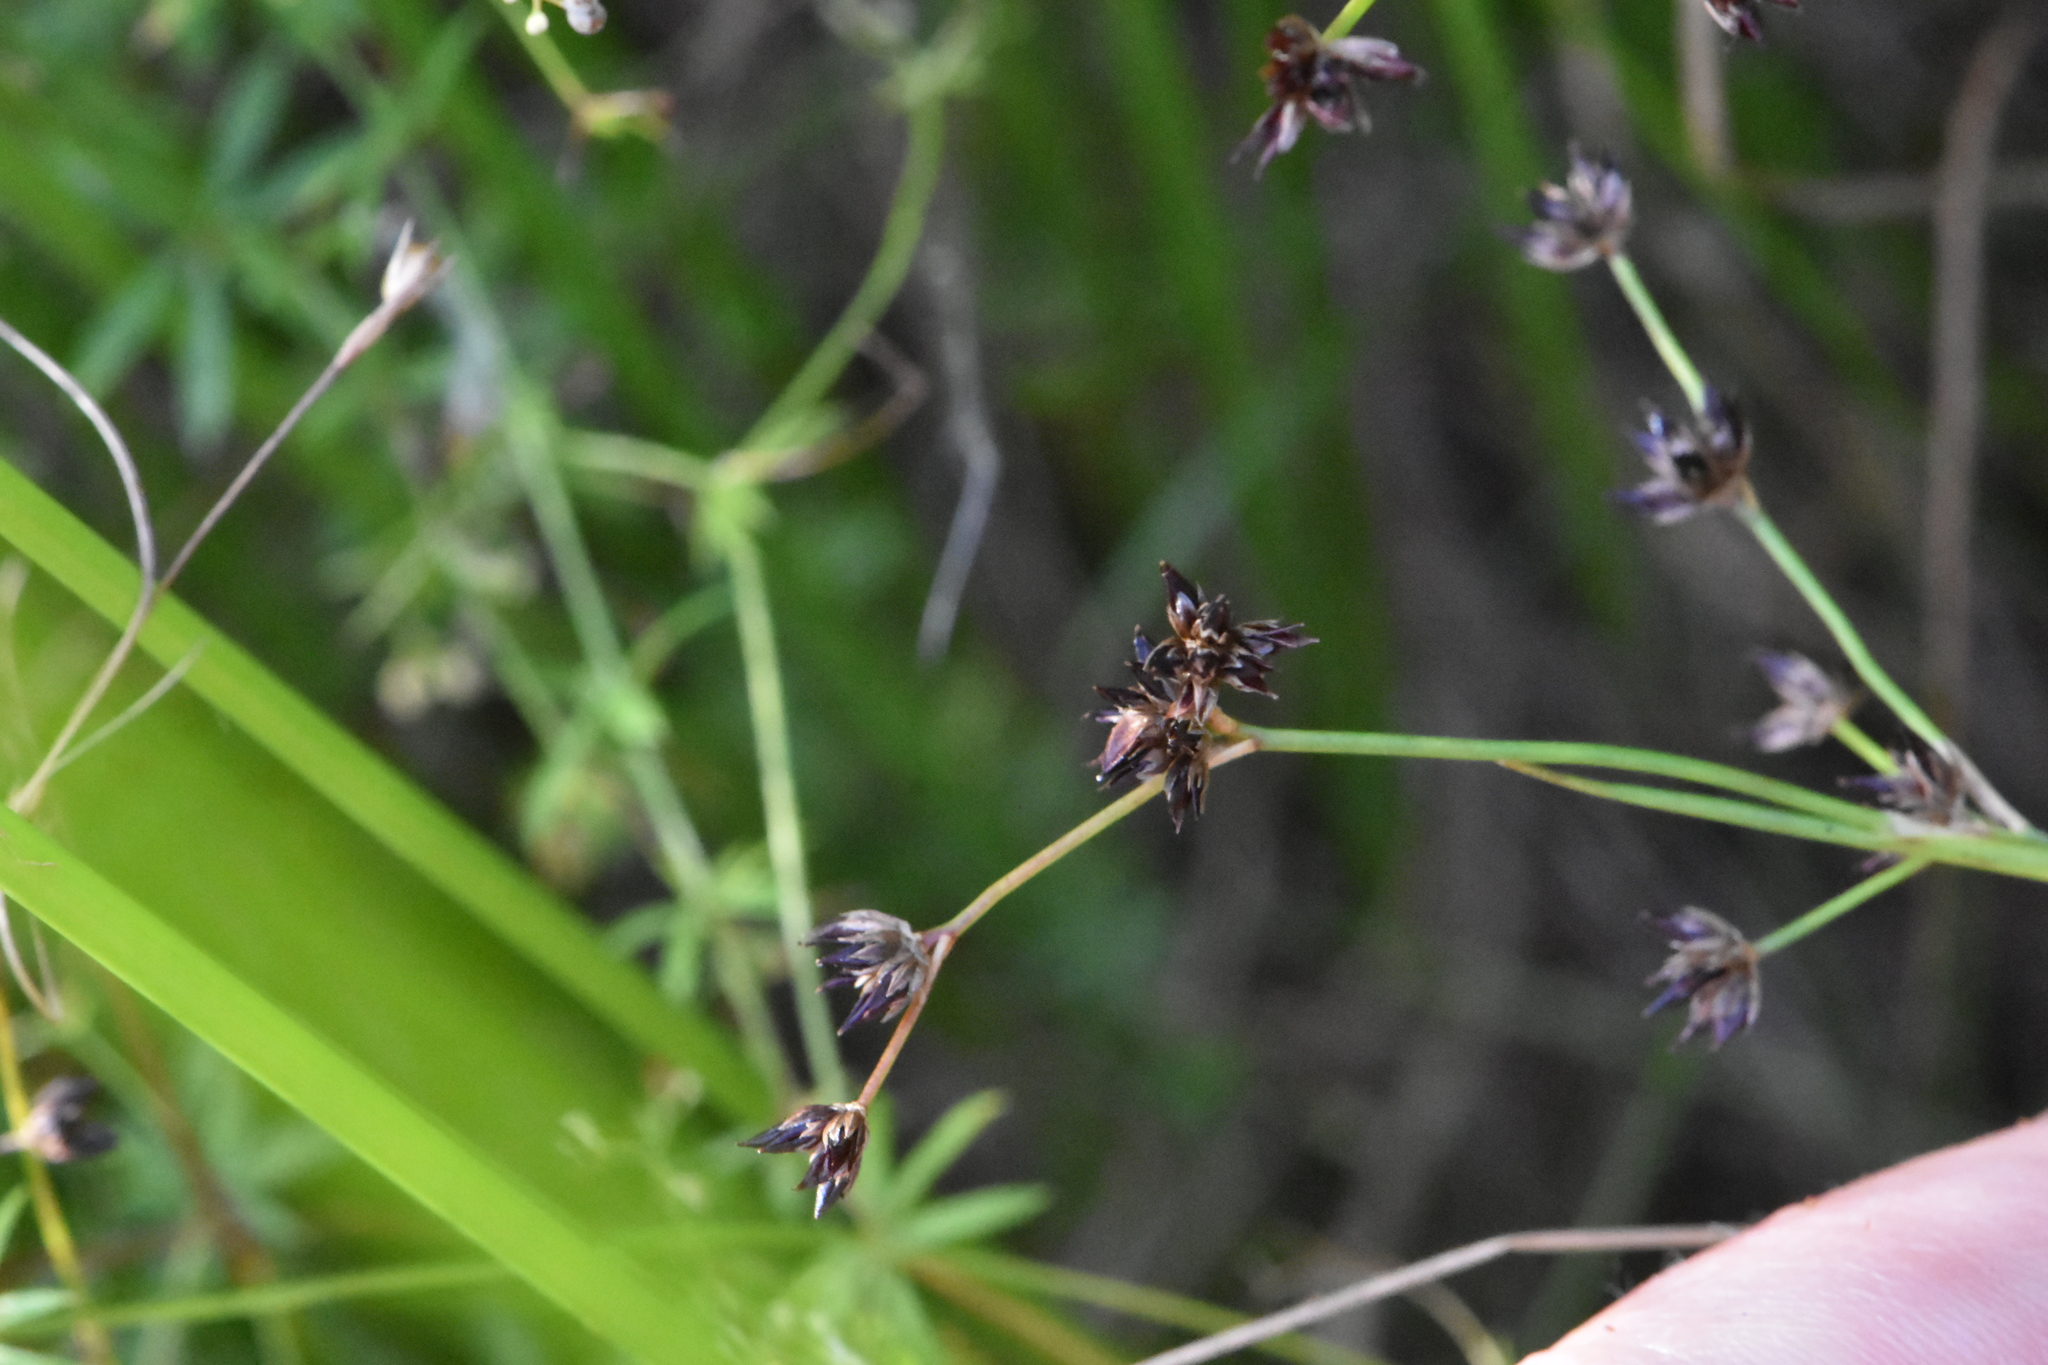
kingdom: Plantae
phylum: Tracheophyta
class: Liliopsida
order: Poales
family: Juncaceae
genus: Juncus
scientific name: Juncus articulatus
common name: Jointed rush
